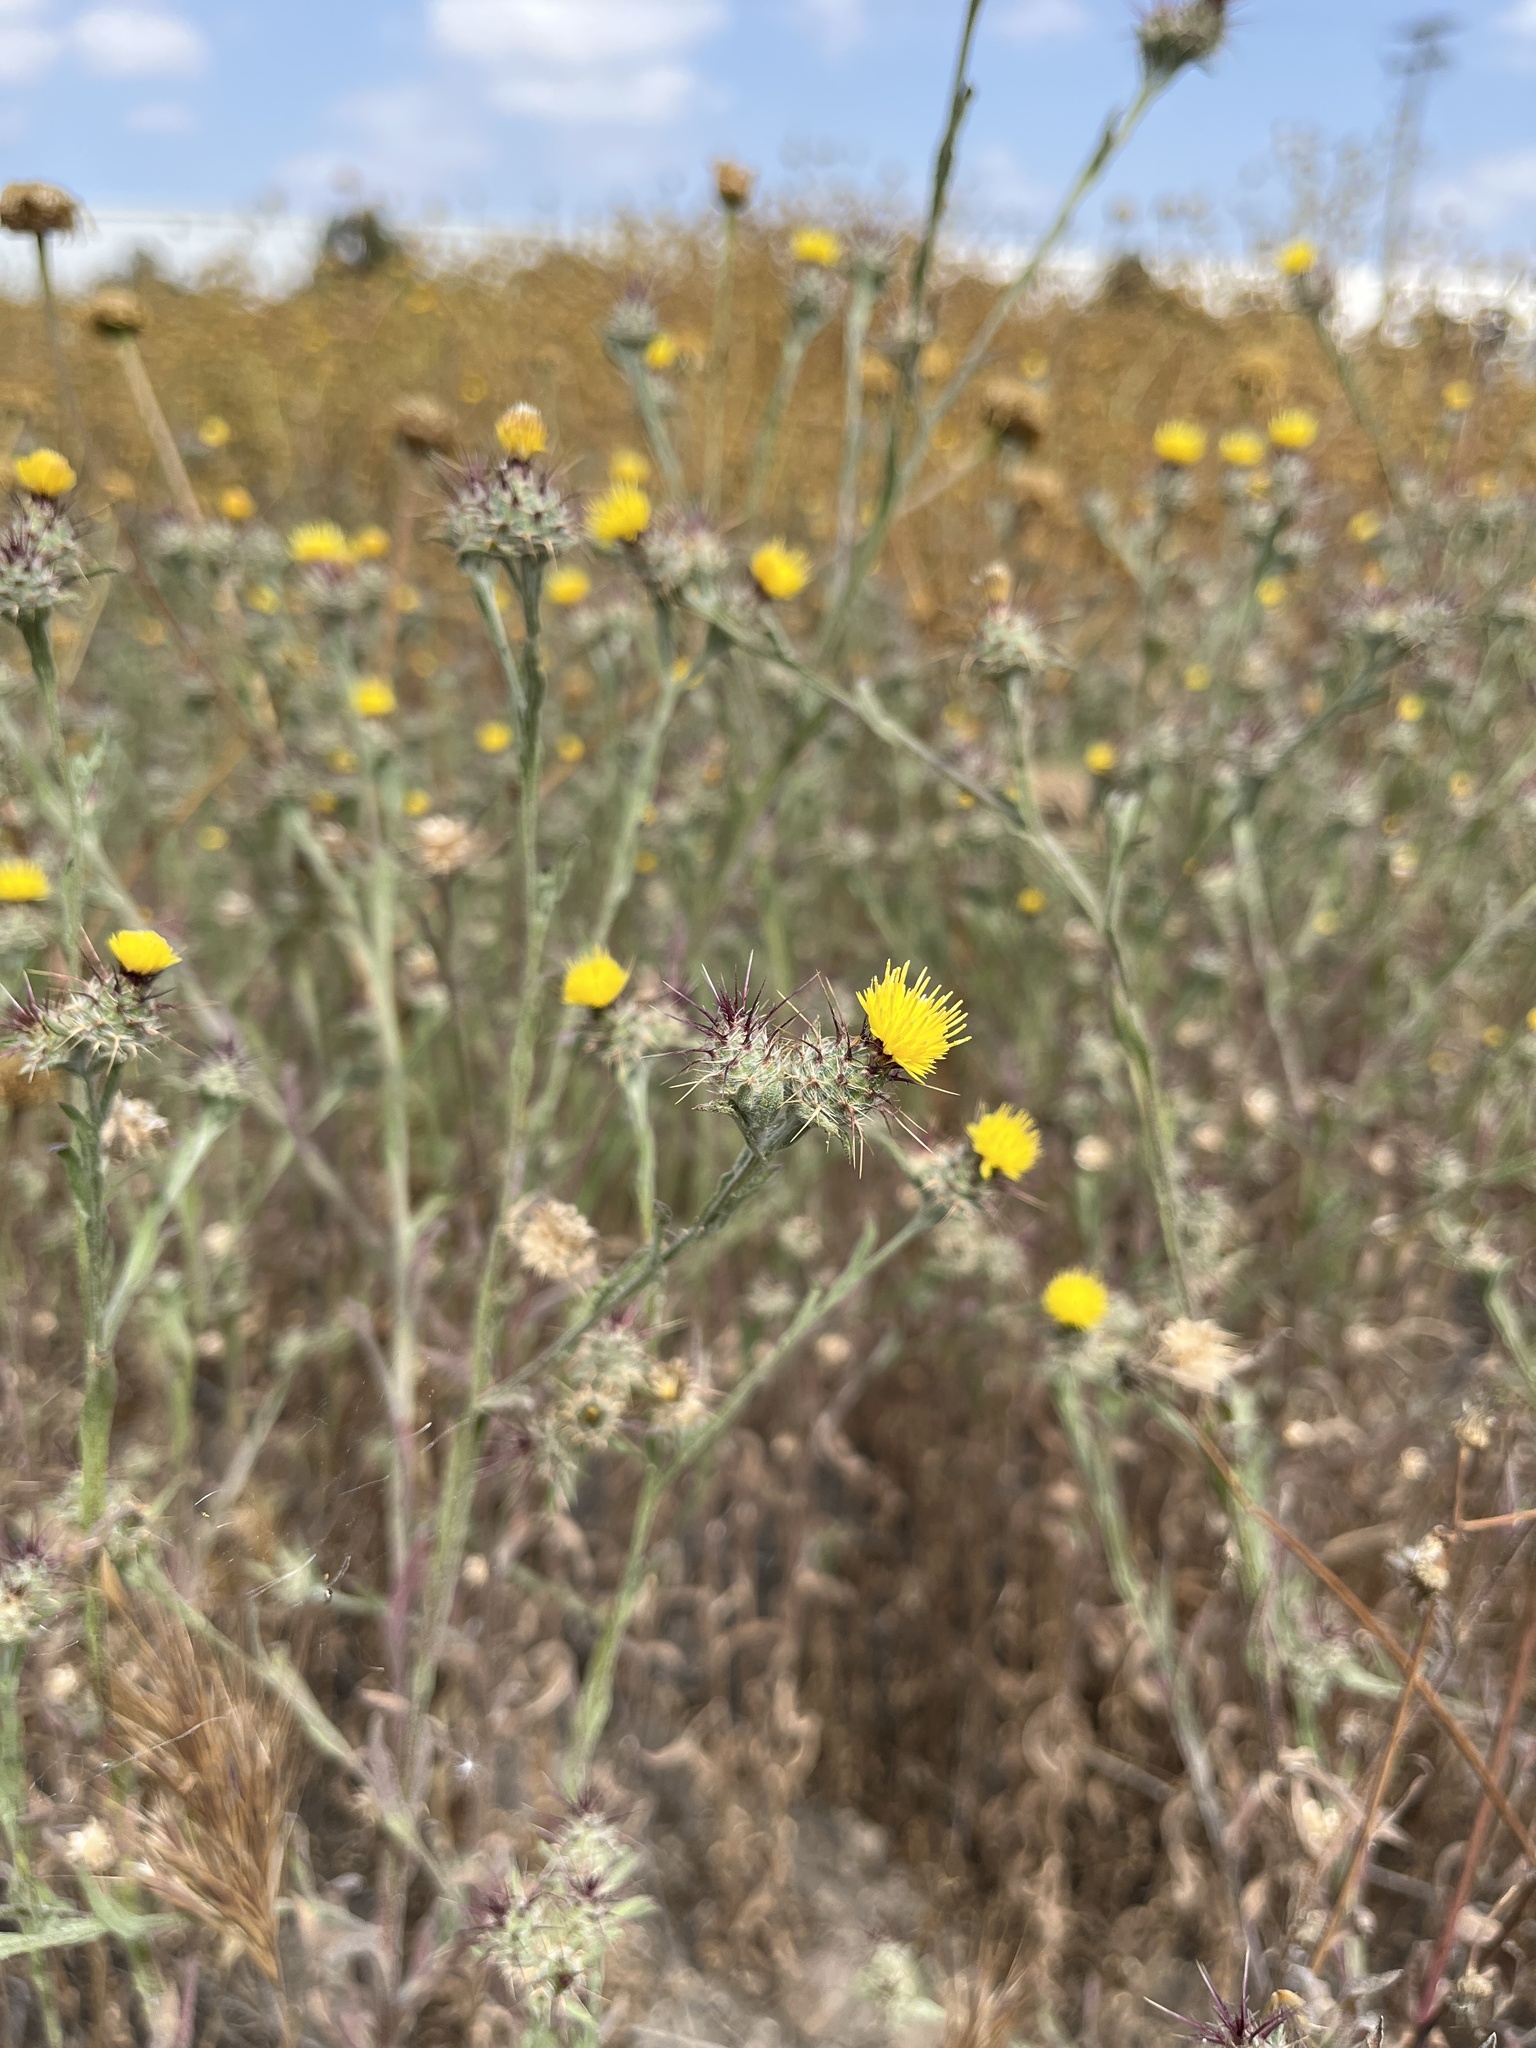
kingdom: Plantae
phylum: Tracheophyta
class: Magnoliopsida
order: Asterales
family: Asteraceae
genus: Centaurea
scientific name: Centaurea melitensis
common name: Maltese star-thistle
